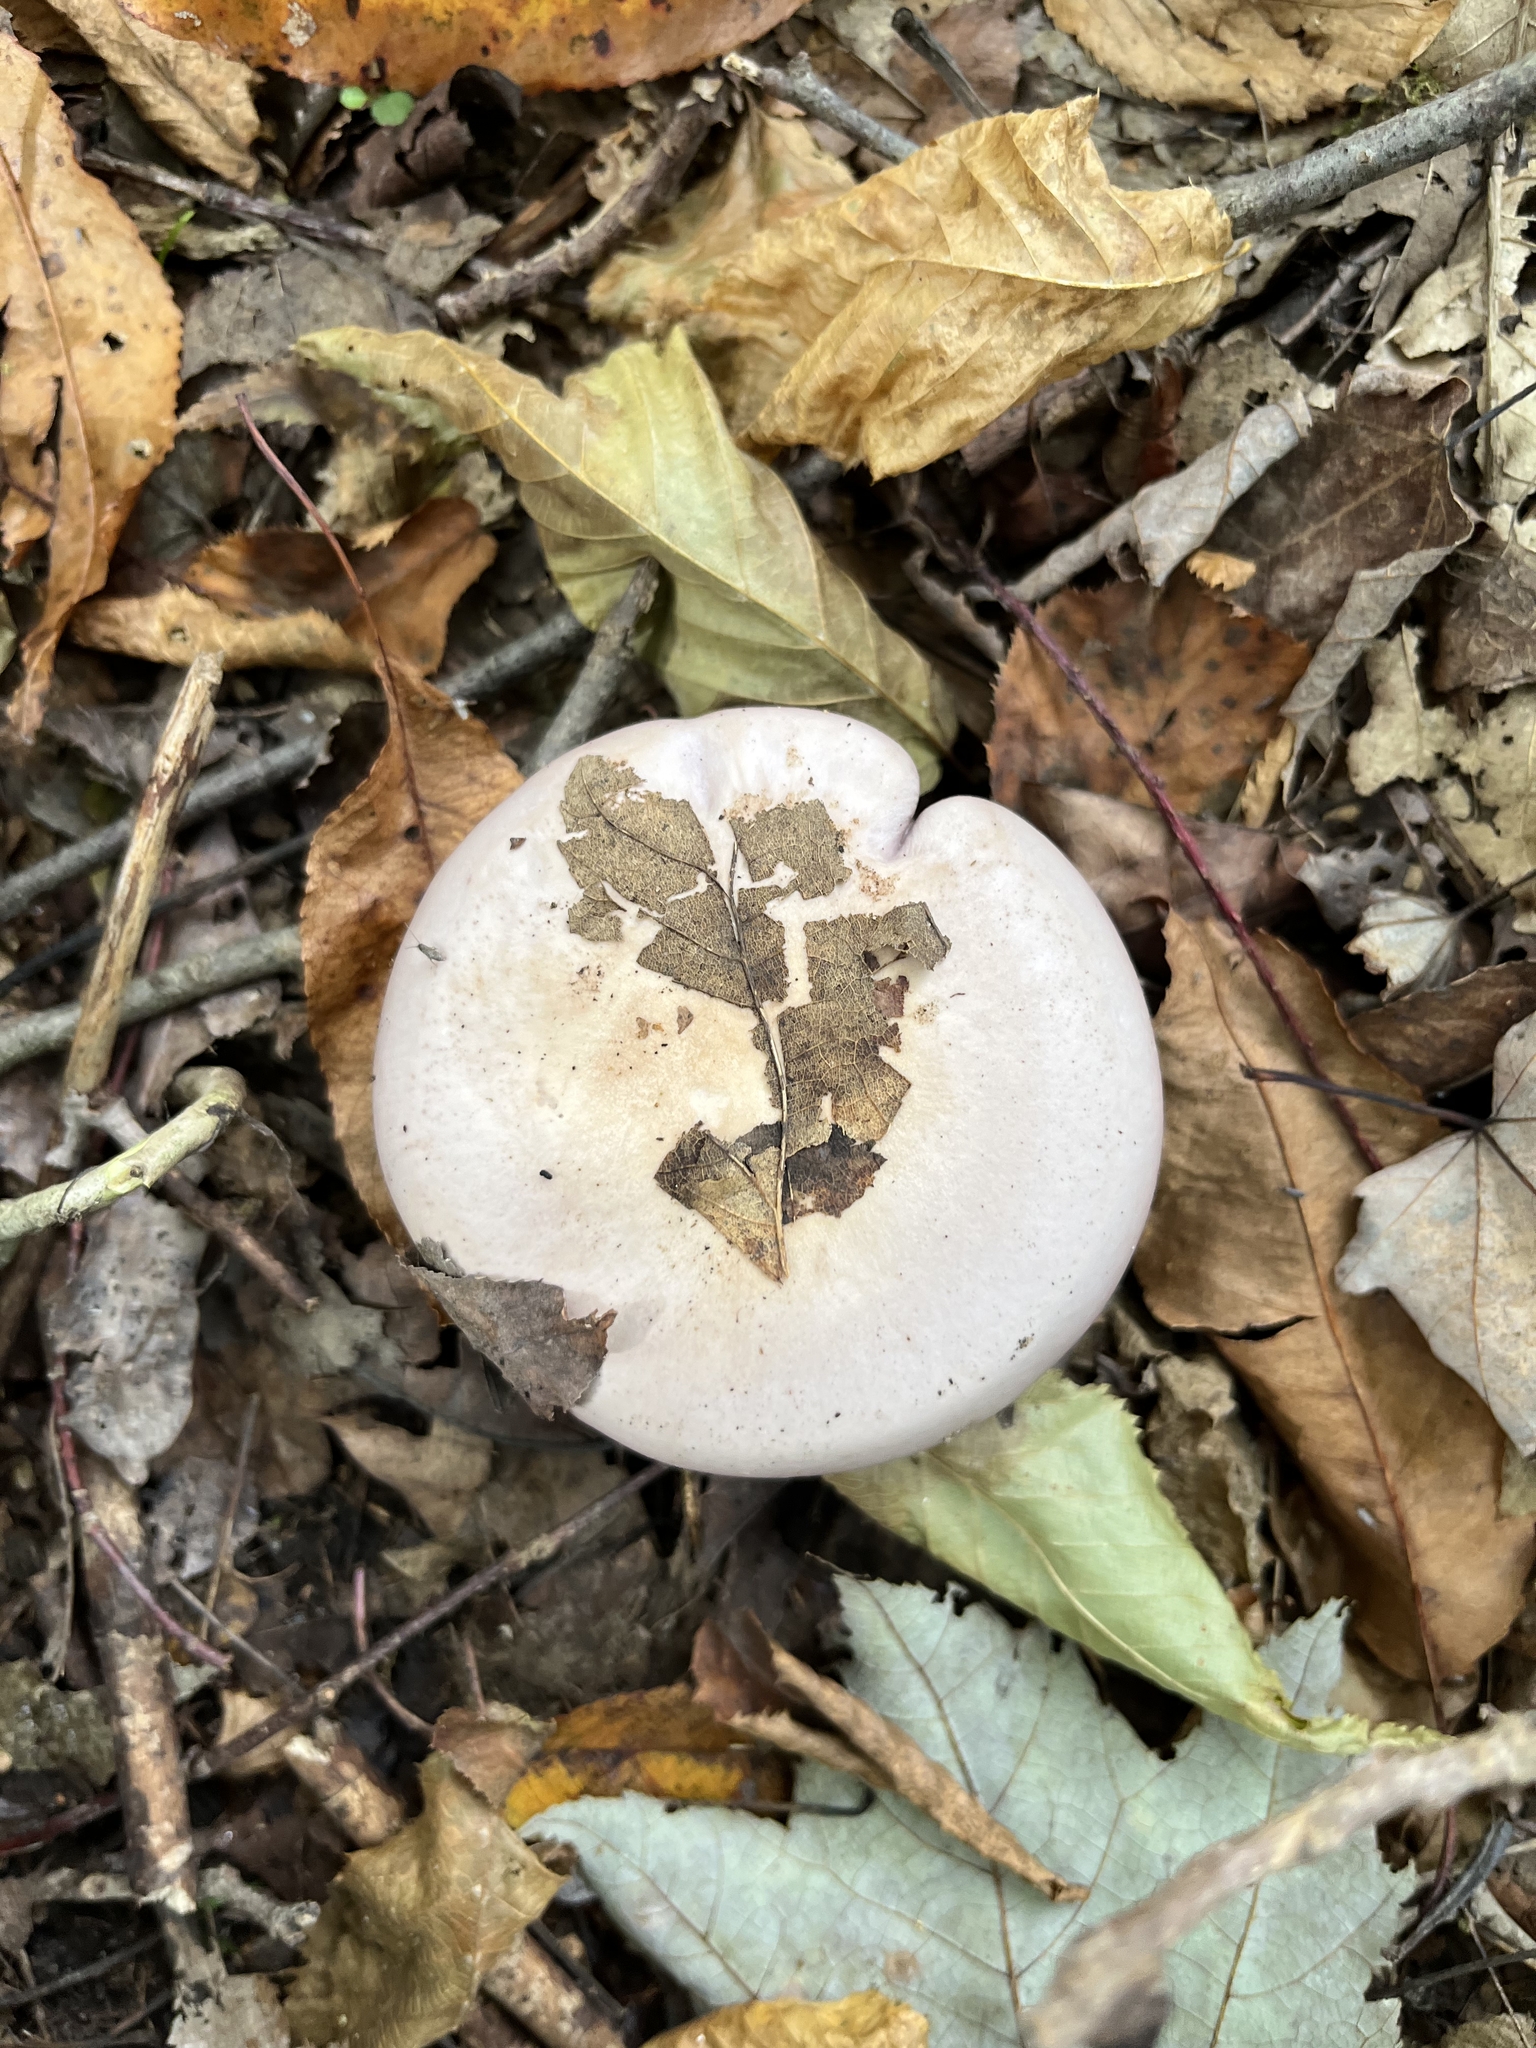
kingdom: Fungi
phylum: Basidiomycota
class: Agaricomycetes
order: Agaricales
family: Tricholomataceae
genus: Collybia
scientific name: Collybia
